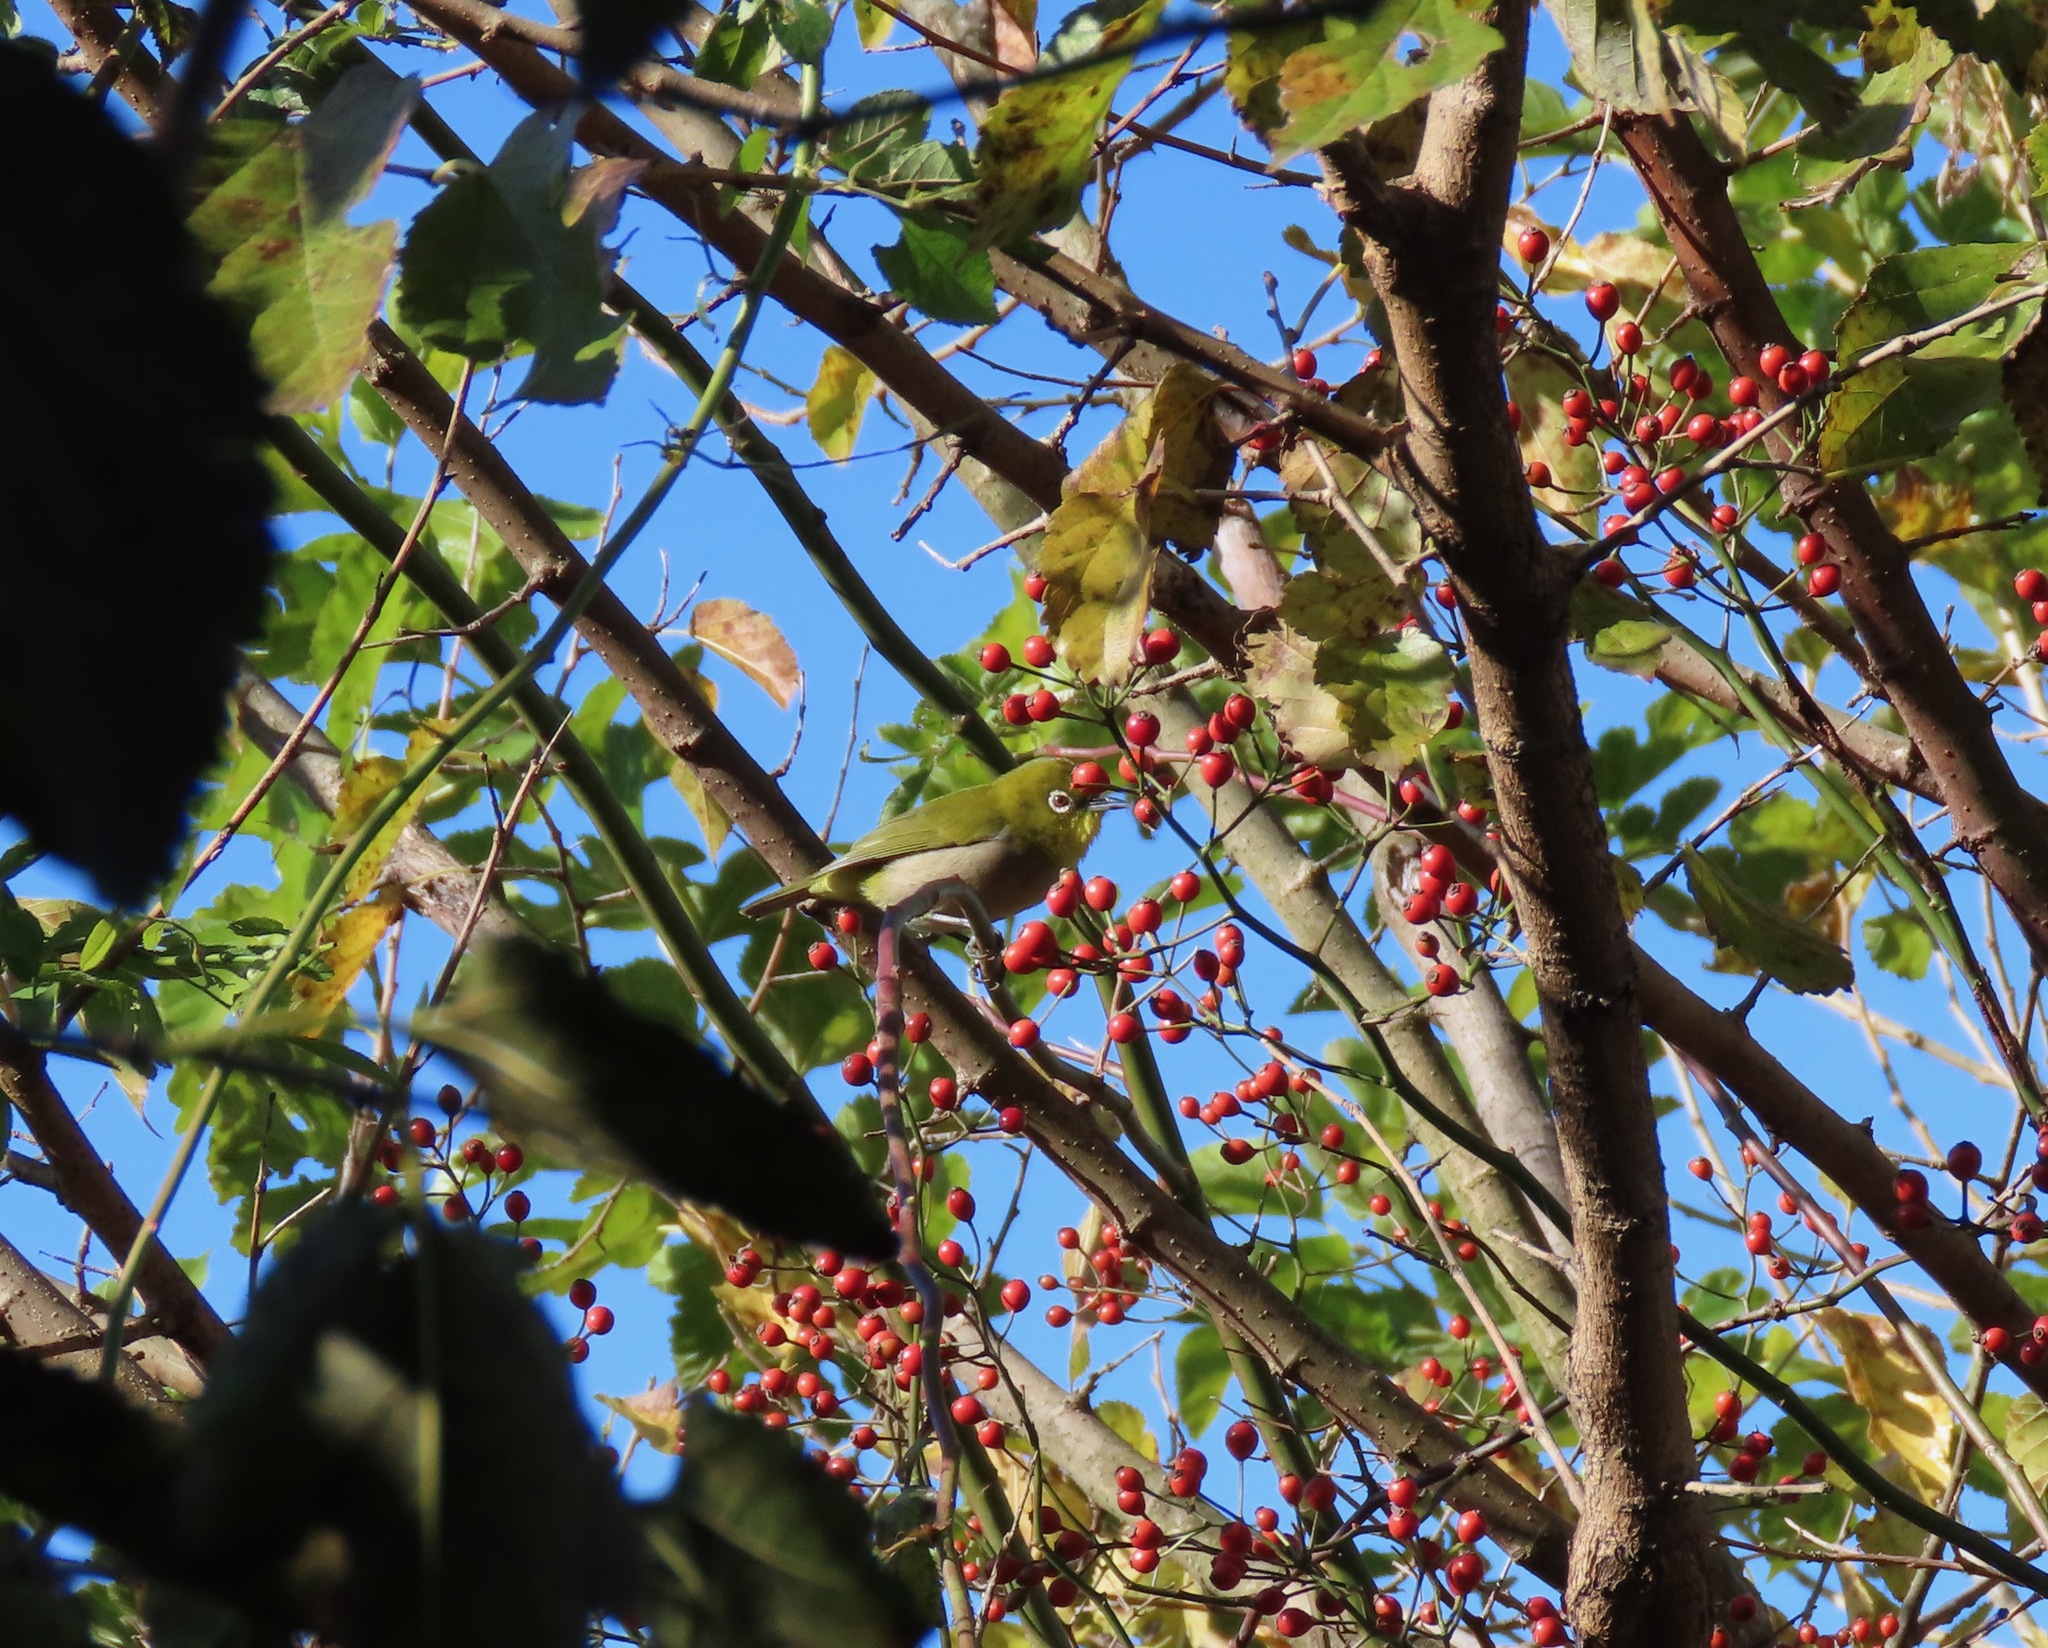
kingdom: Animalia
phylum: Chordata
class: Aves
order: Passeriformes
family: Zosteropidae
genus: Zosterops
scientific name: Zosterops japonicus
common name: Japanese white-eye
